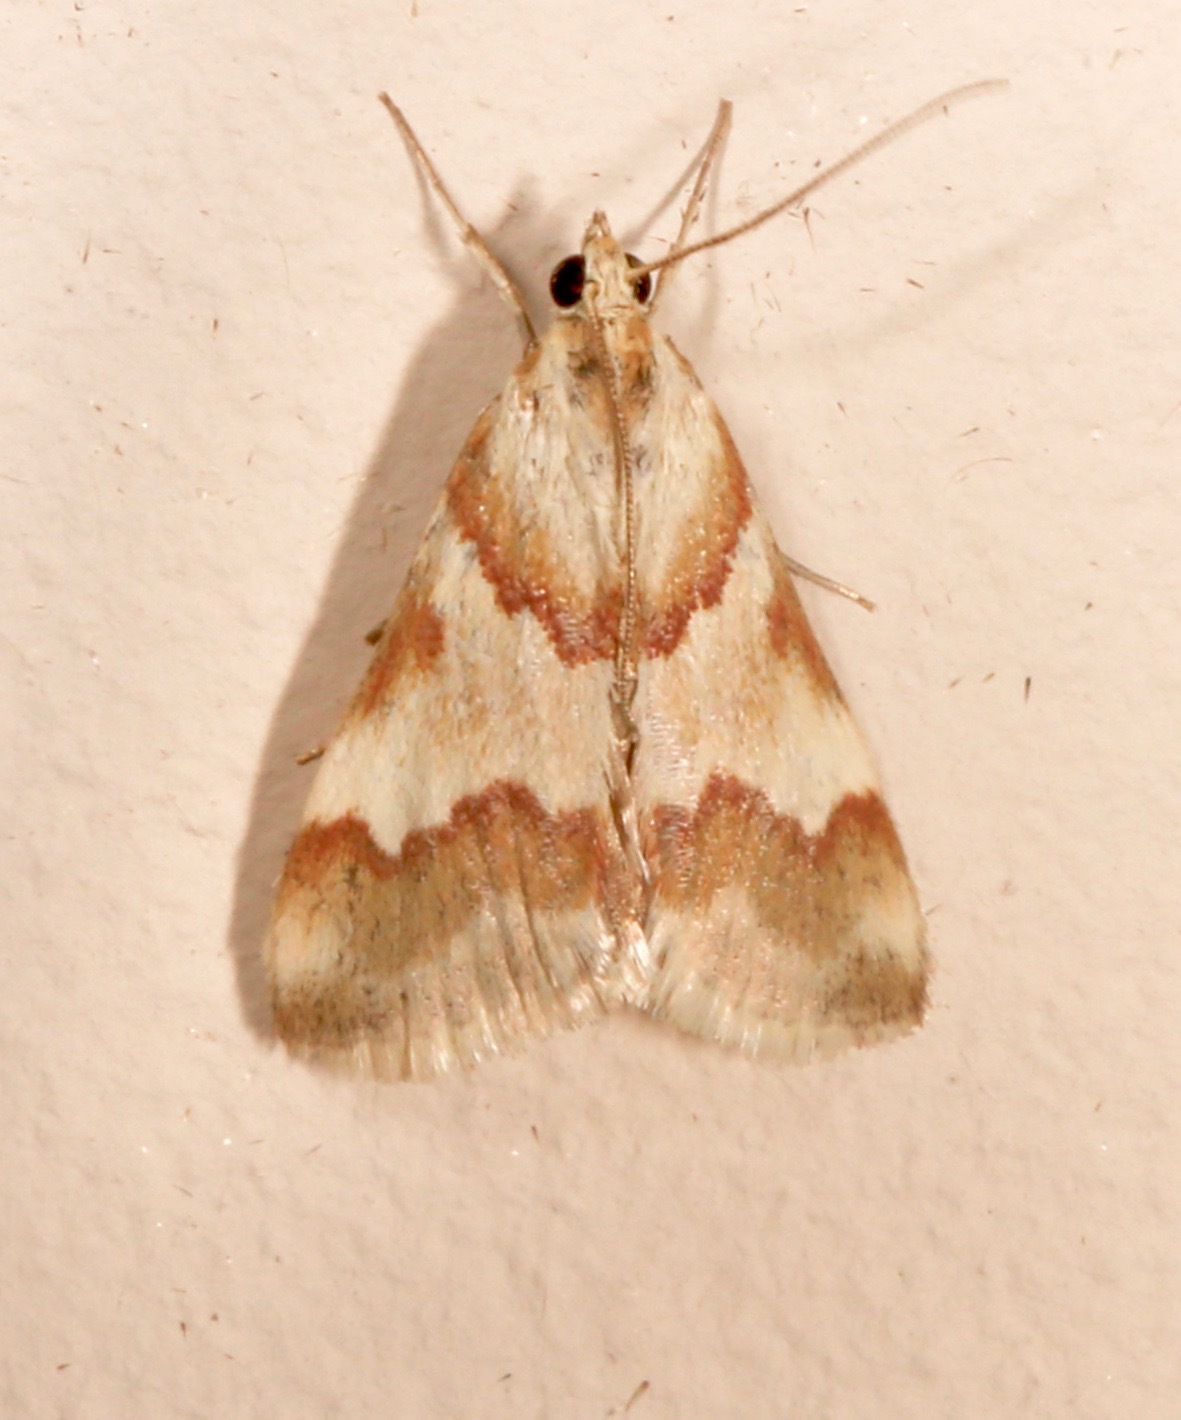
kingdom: Animalia
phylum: Arthropoda
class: Insecta
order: Lepidoptera
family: Crambidae
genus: Noctuelia
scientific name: Noctuelia Mimoschinia rufofascialis
